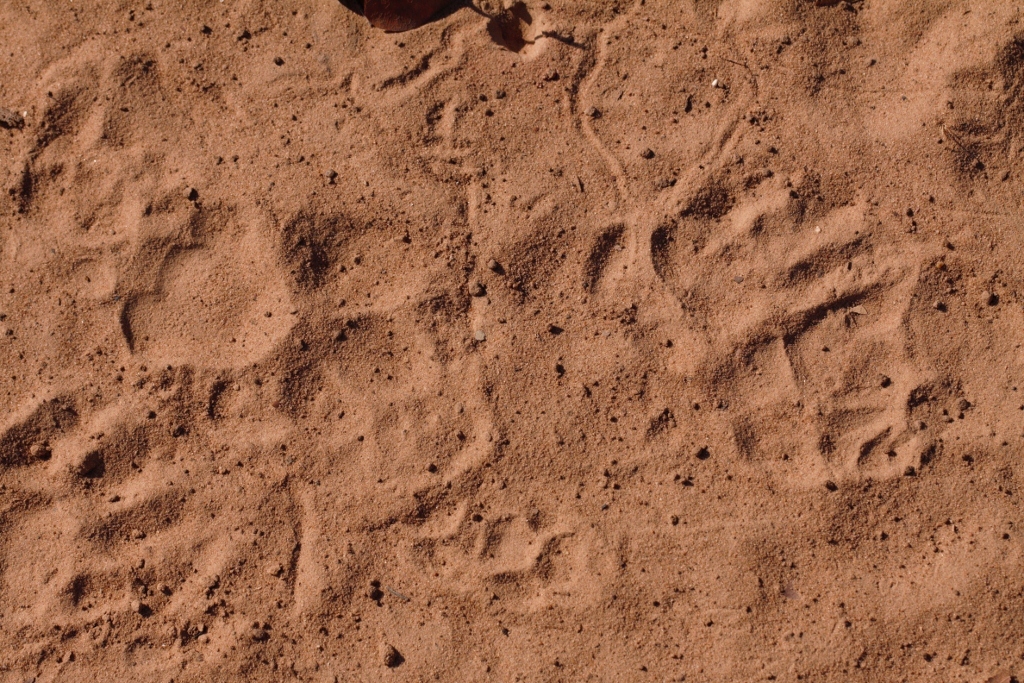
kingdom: Animalia
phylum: Chordata
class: Mammalia
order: Rodentia
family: Hystricidae
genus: Hystrix
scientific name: Hystrix africaeaustralis
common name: Cape porcupine
